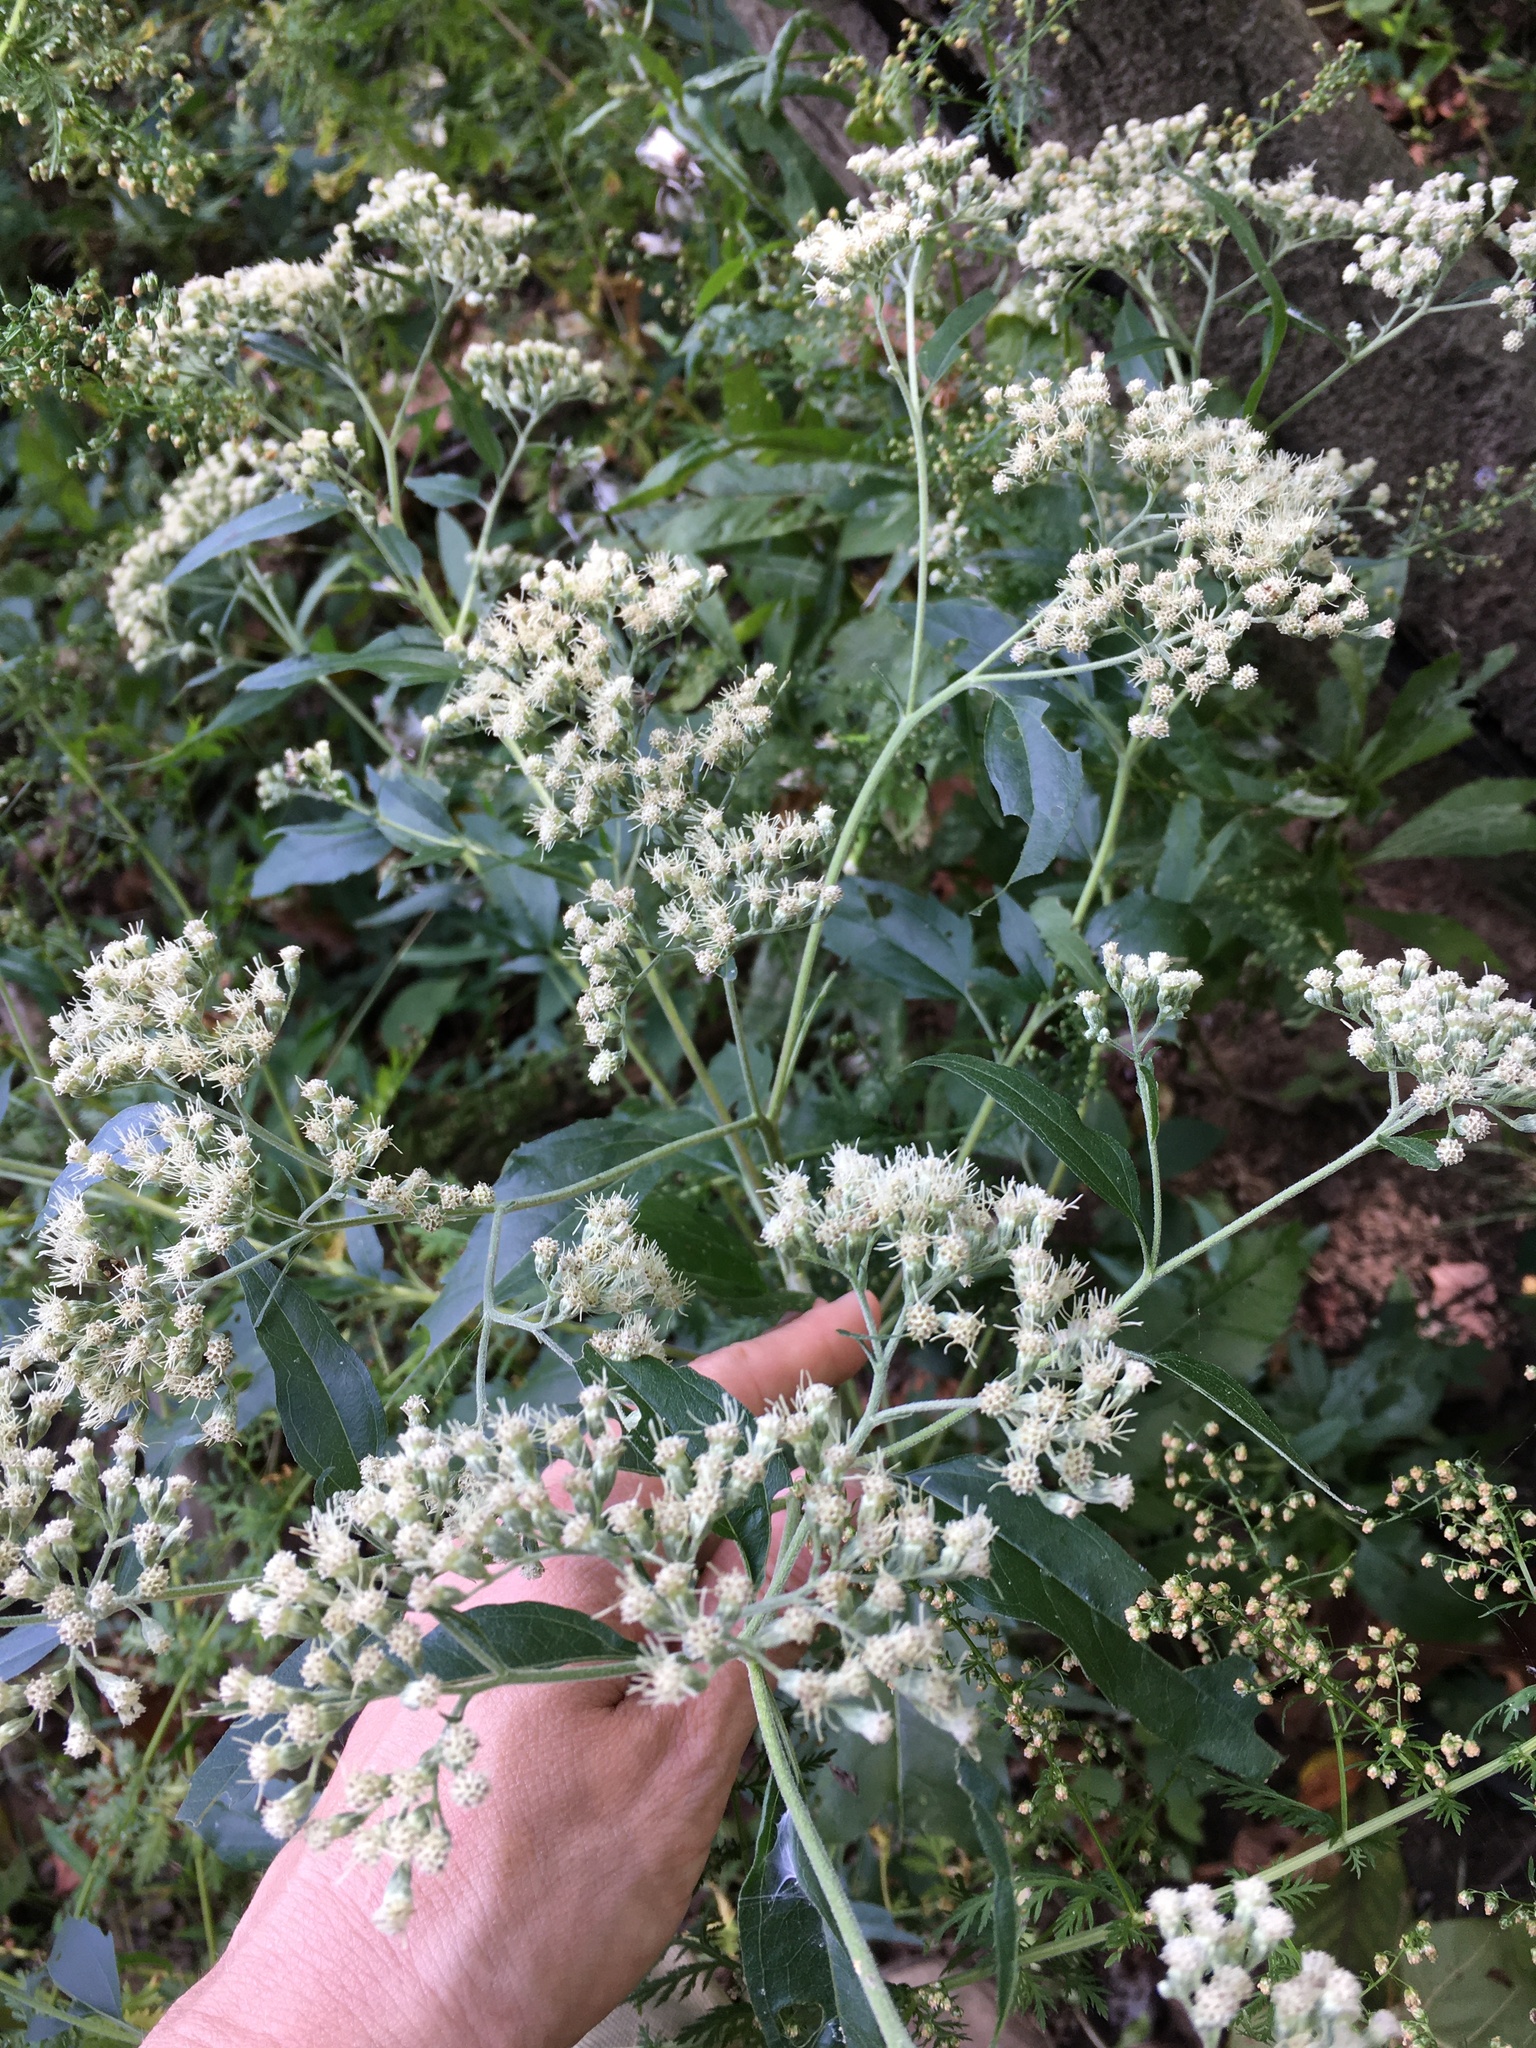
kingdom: Plantae
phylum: Tracheophyta
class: Magnoliopsida
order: Asterales
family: Asteraceae
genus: Eupatorium
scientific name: Eupatorium serotinum
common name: Late boneset
